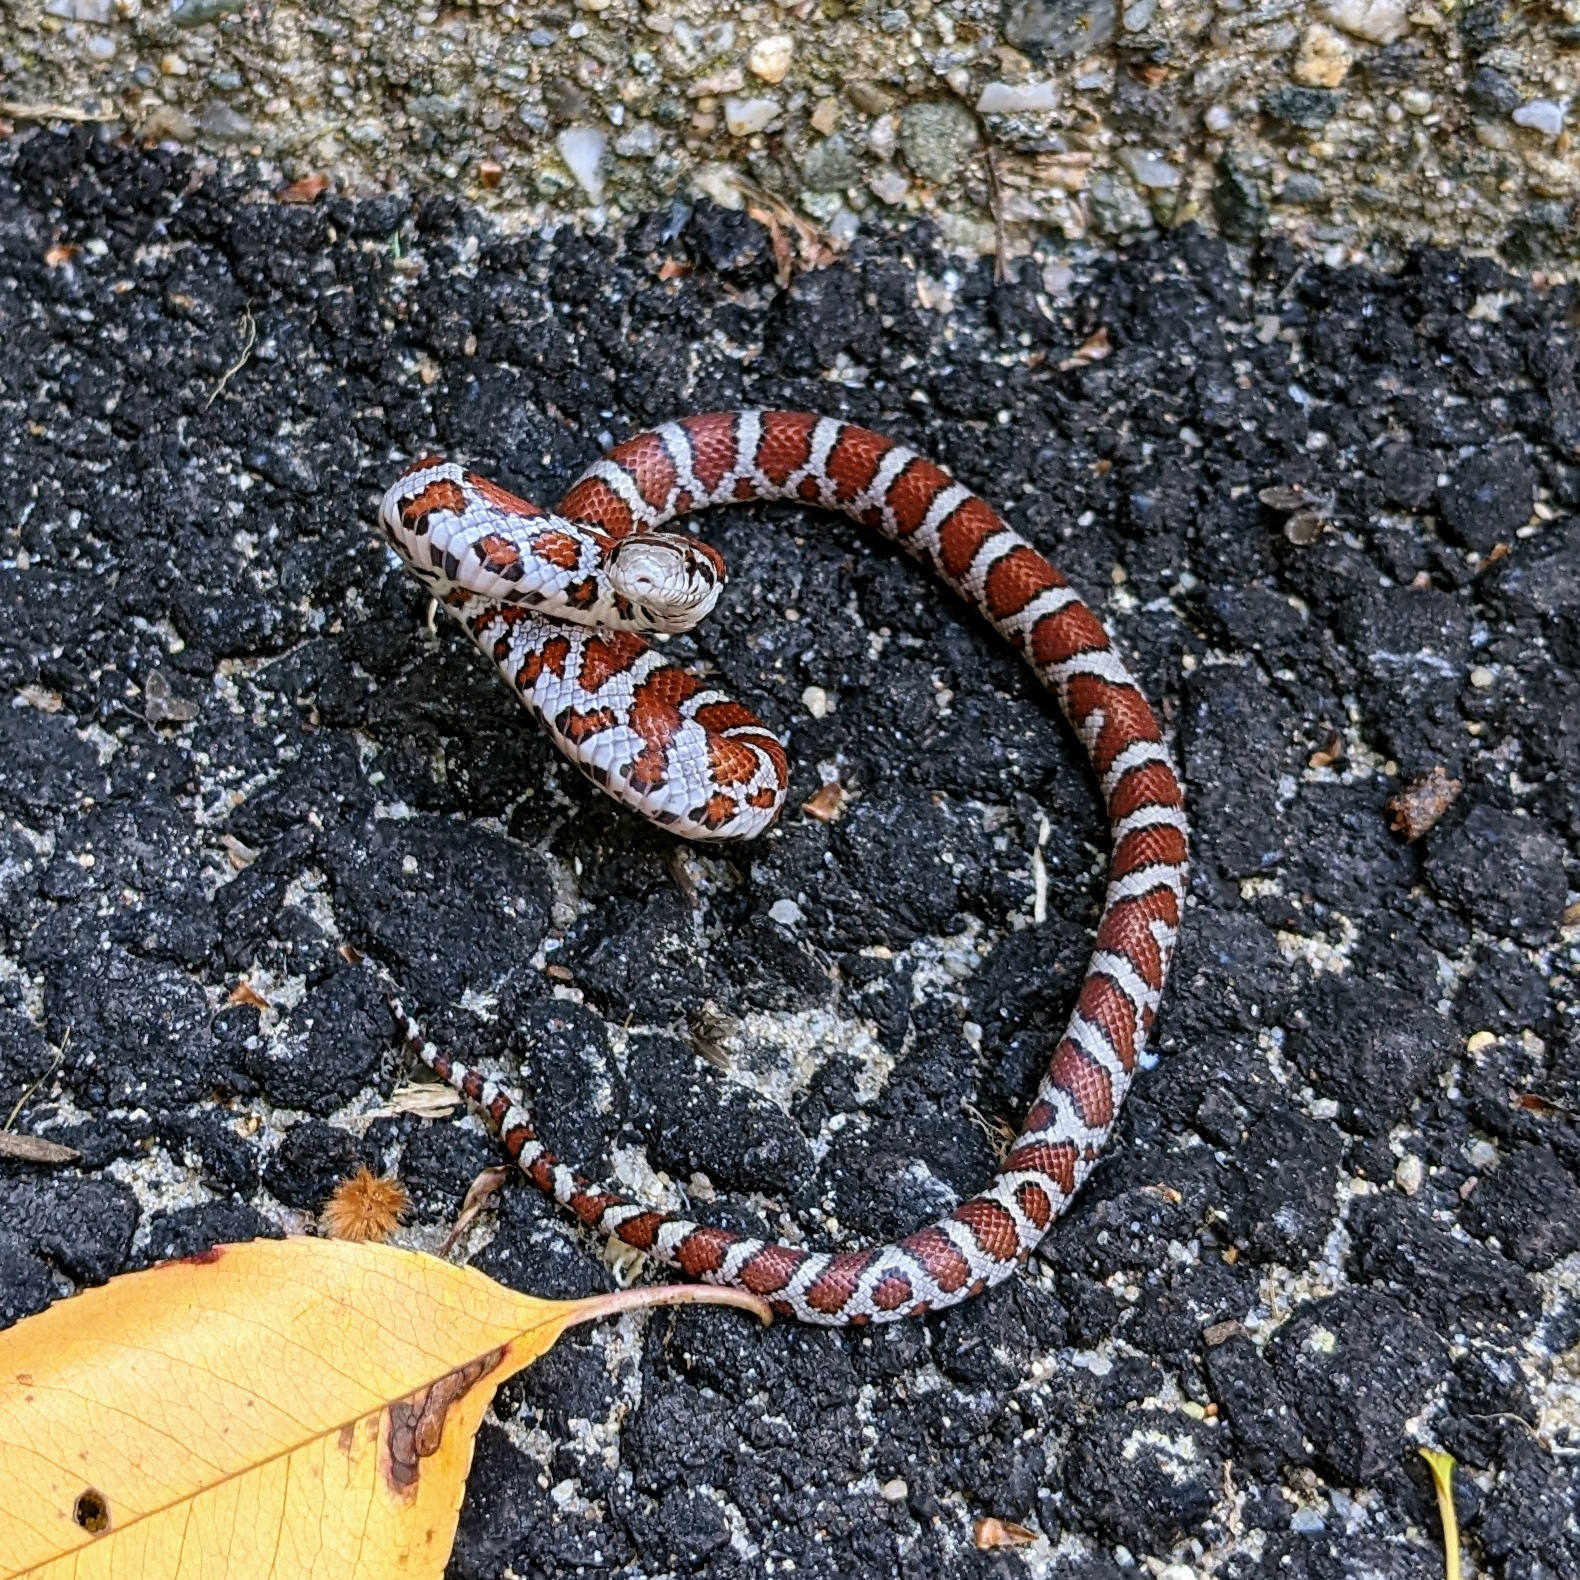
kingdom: Animalia
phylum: Chordata
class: Squamata
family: Colubridae
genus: Lampropeltis
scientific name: Lampropeltis triangulum
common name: Eastern milksnake
